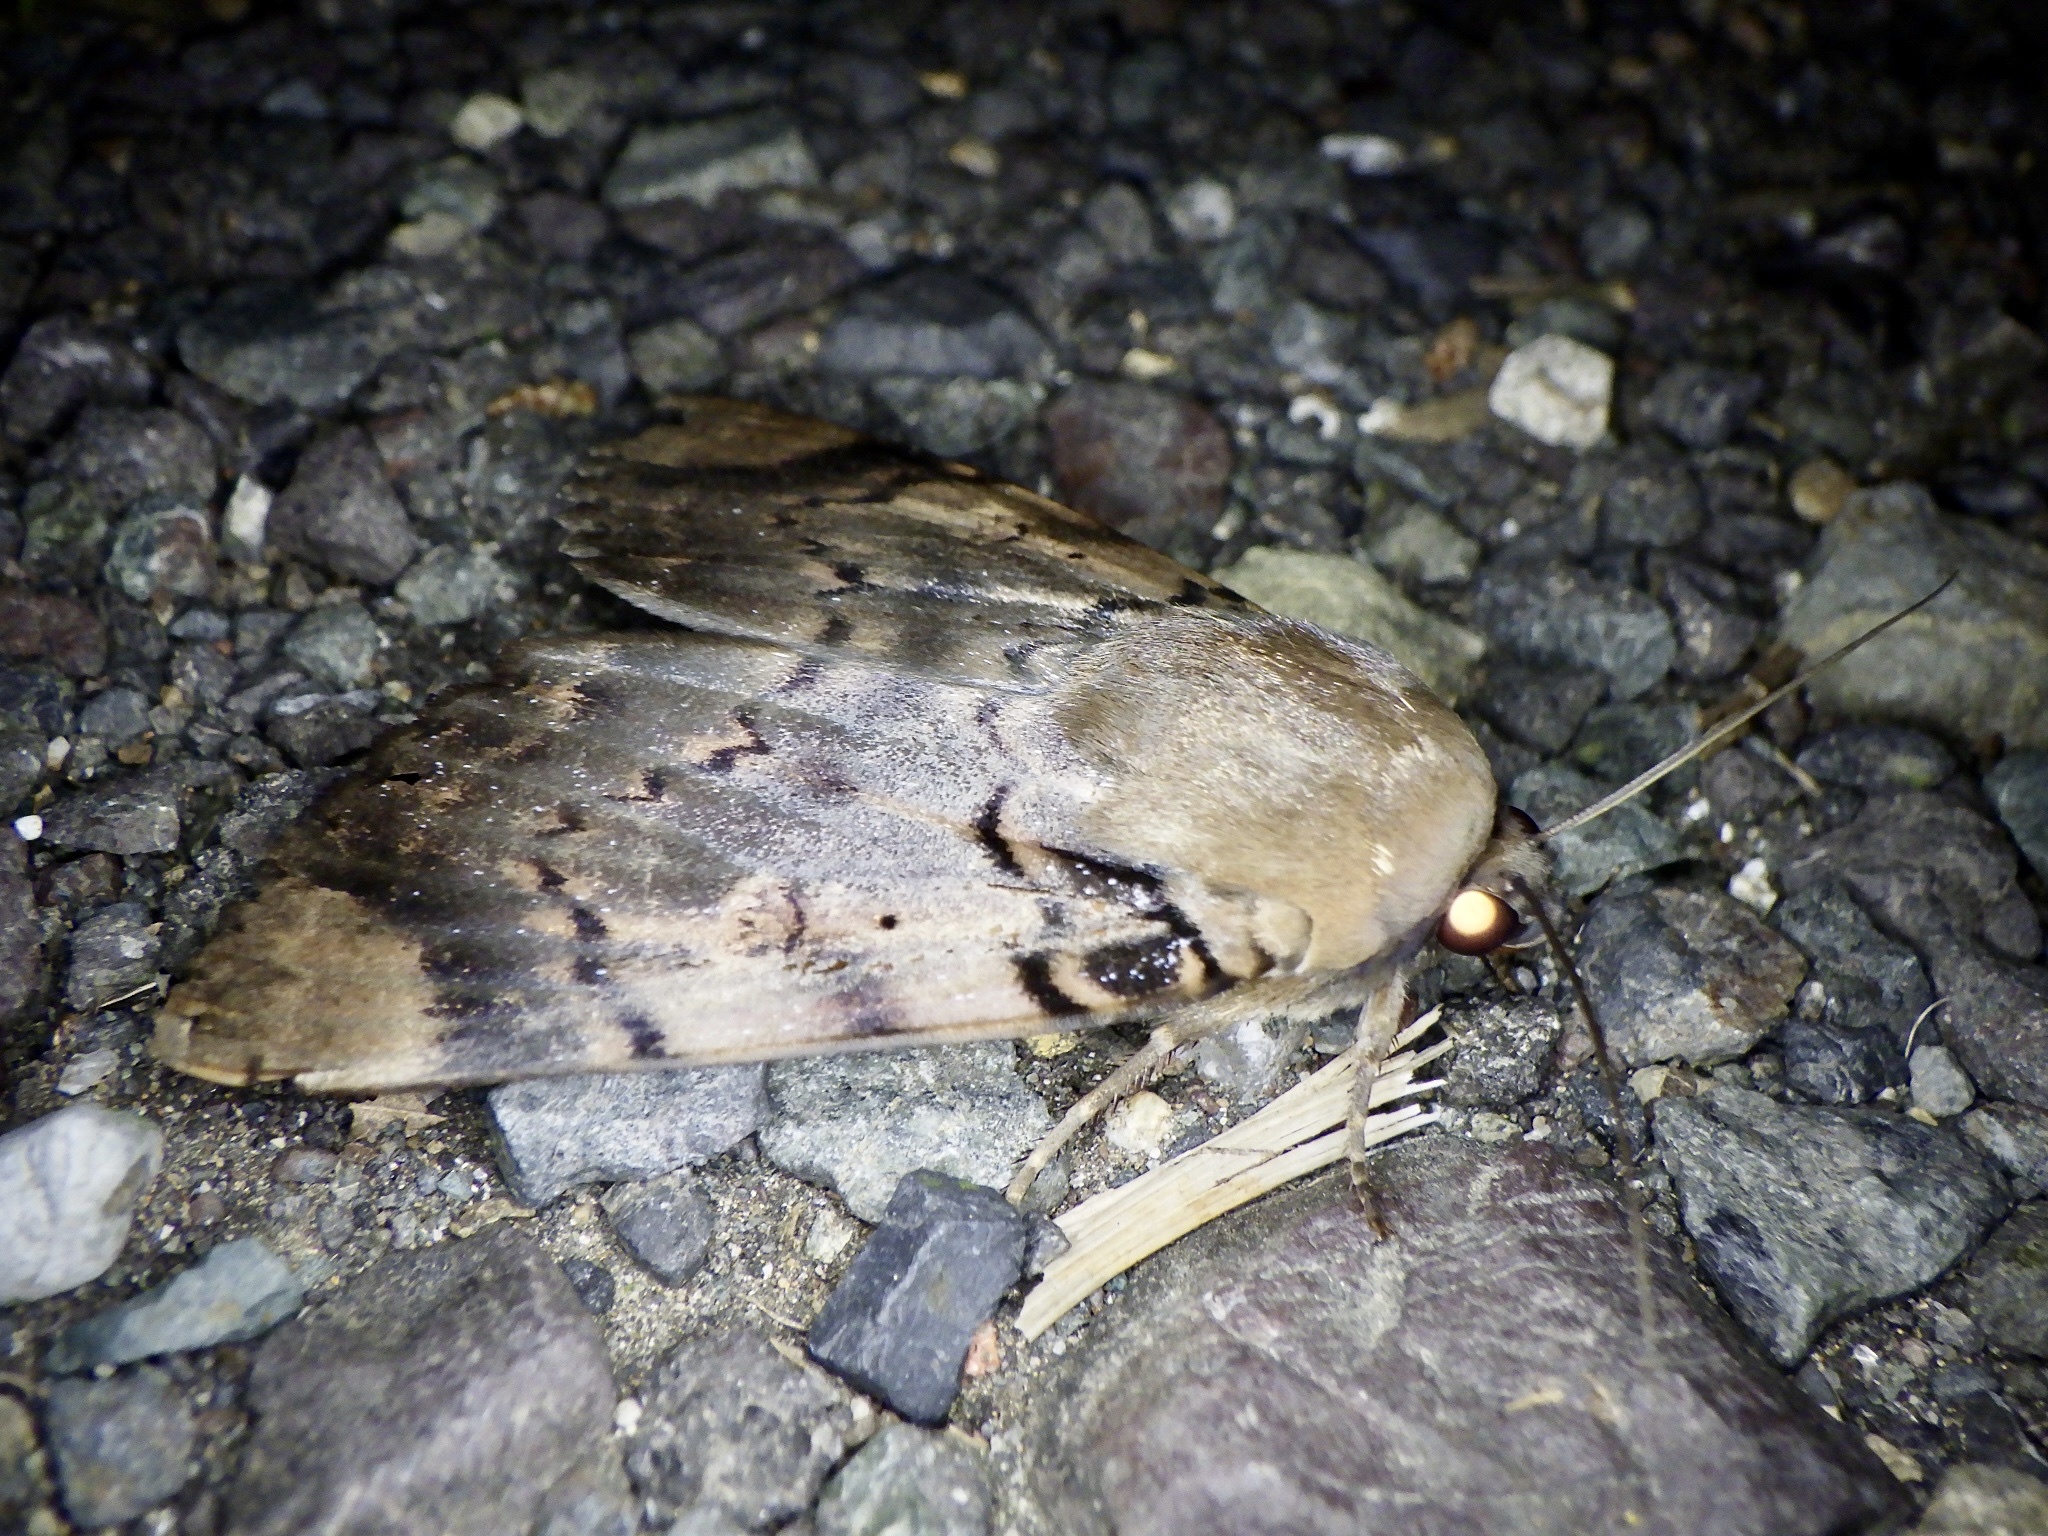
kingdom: Animalia
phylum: Arthropoda
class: Insecta
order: Lepidoptera
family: Erebidae
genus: Arcte
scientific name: Arcte coerula
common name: Ramie moth
